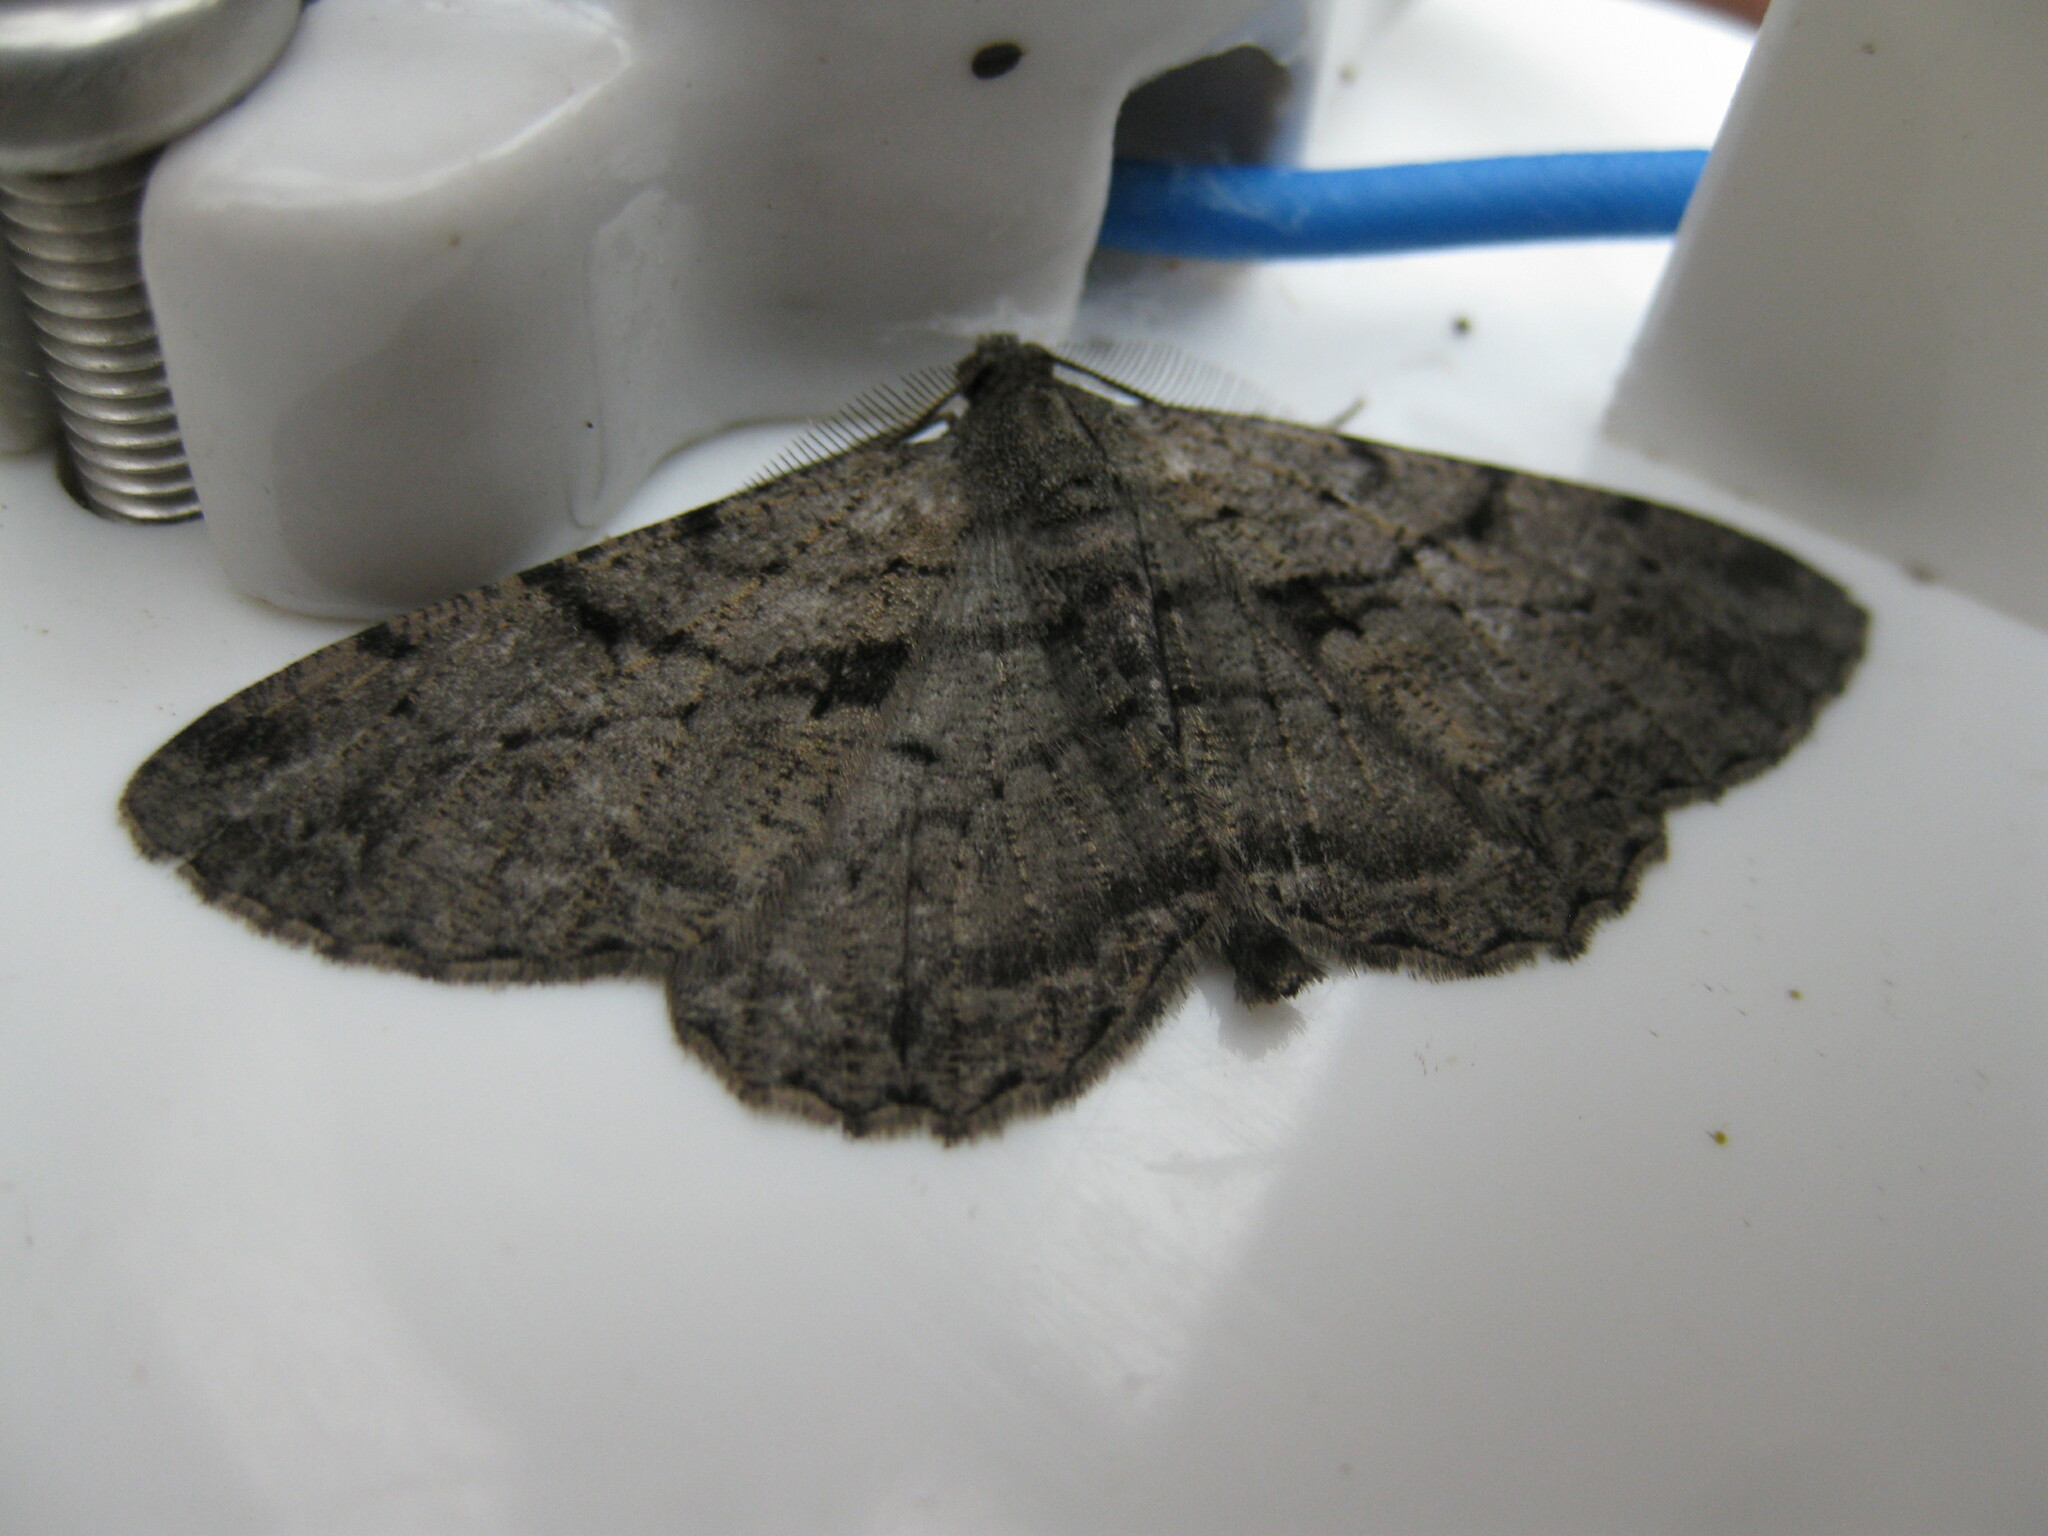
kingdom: Animalia
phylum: Arthropoda
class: Insecta
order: Lepidoptera
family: Geometridae
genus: Peribatodes
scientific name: Peribatodes rhomboidaria
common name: Willow beauty
